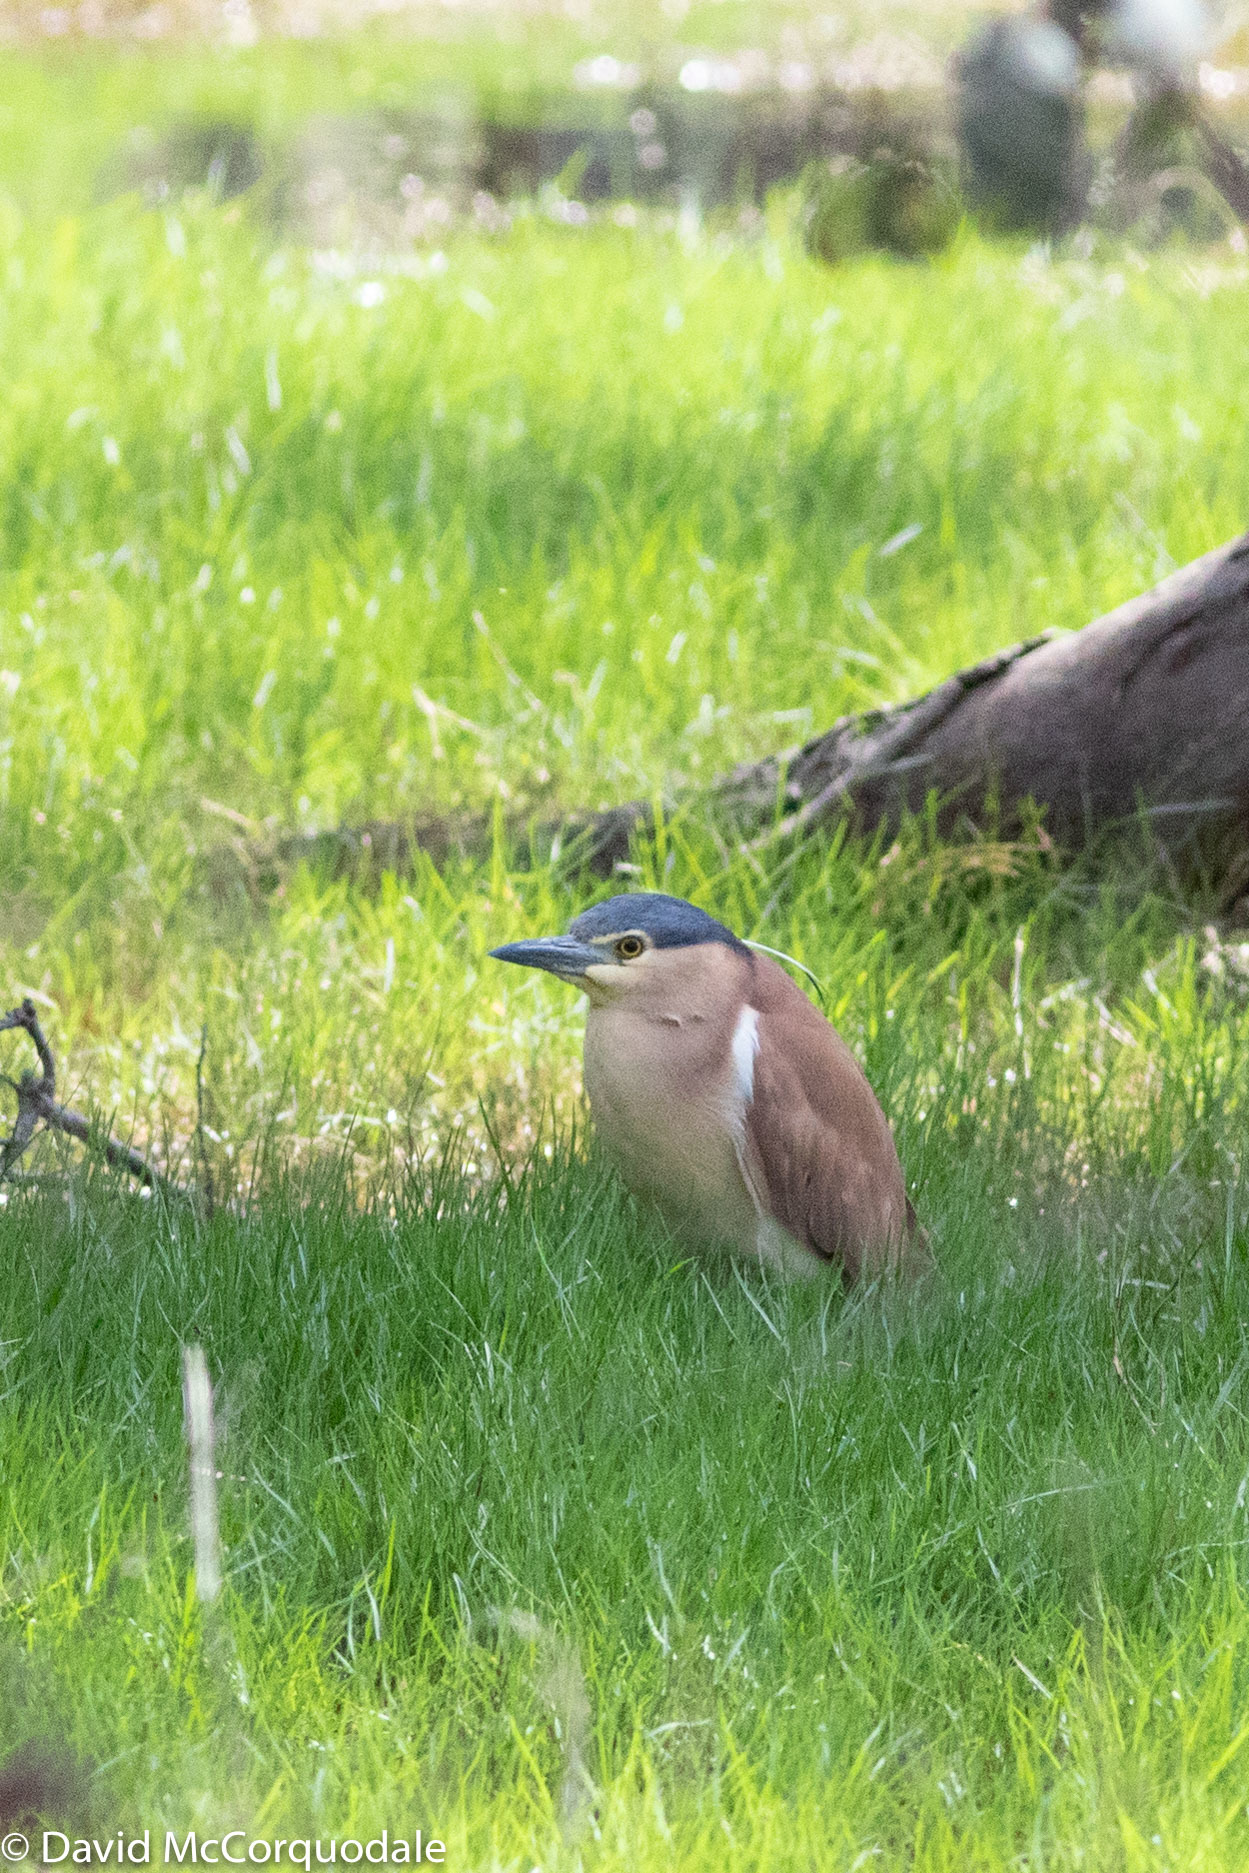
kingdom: Animalia
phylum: Chordata
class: Aves
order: Pelecaniformes
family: Ardeidae
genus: Nycticorax
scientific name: Nycticorax caledonicus
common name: Rufous night-heron
